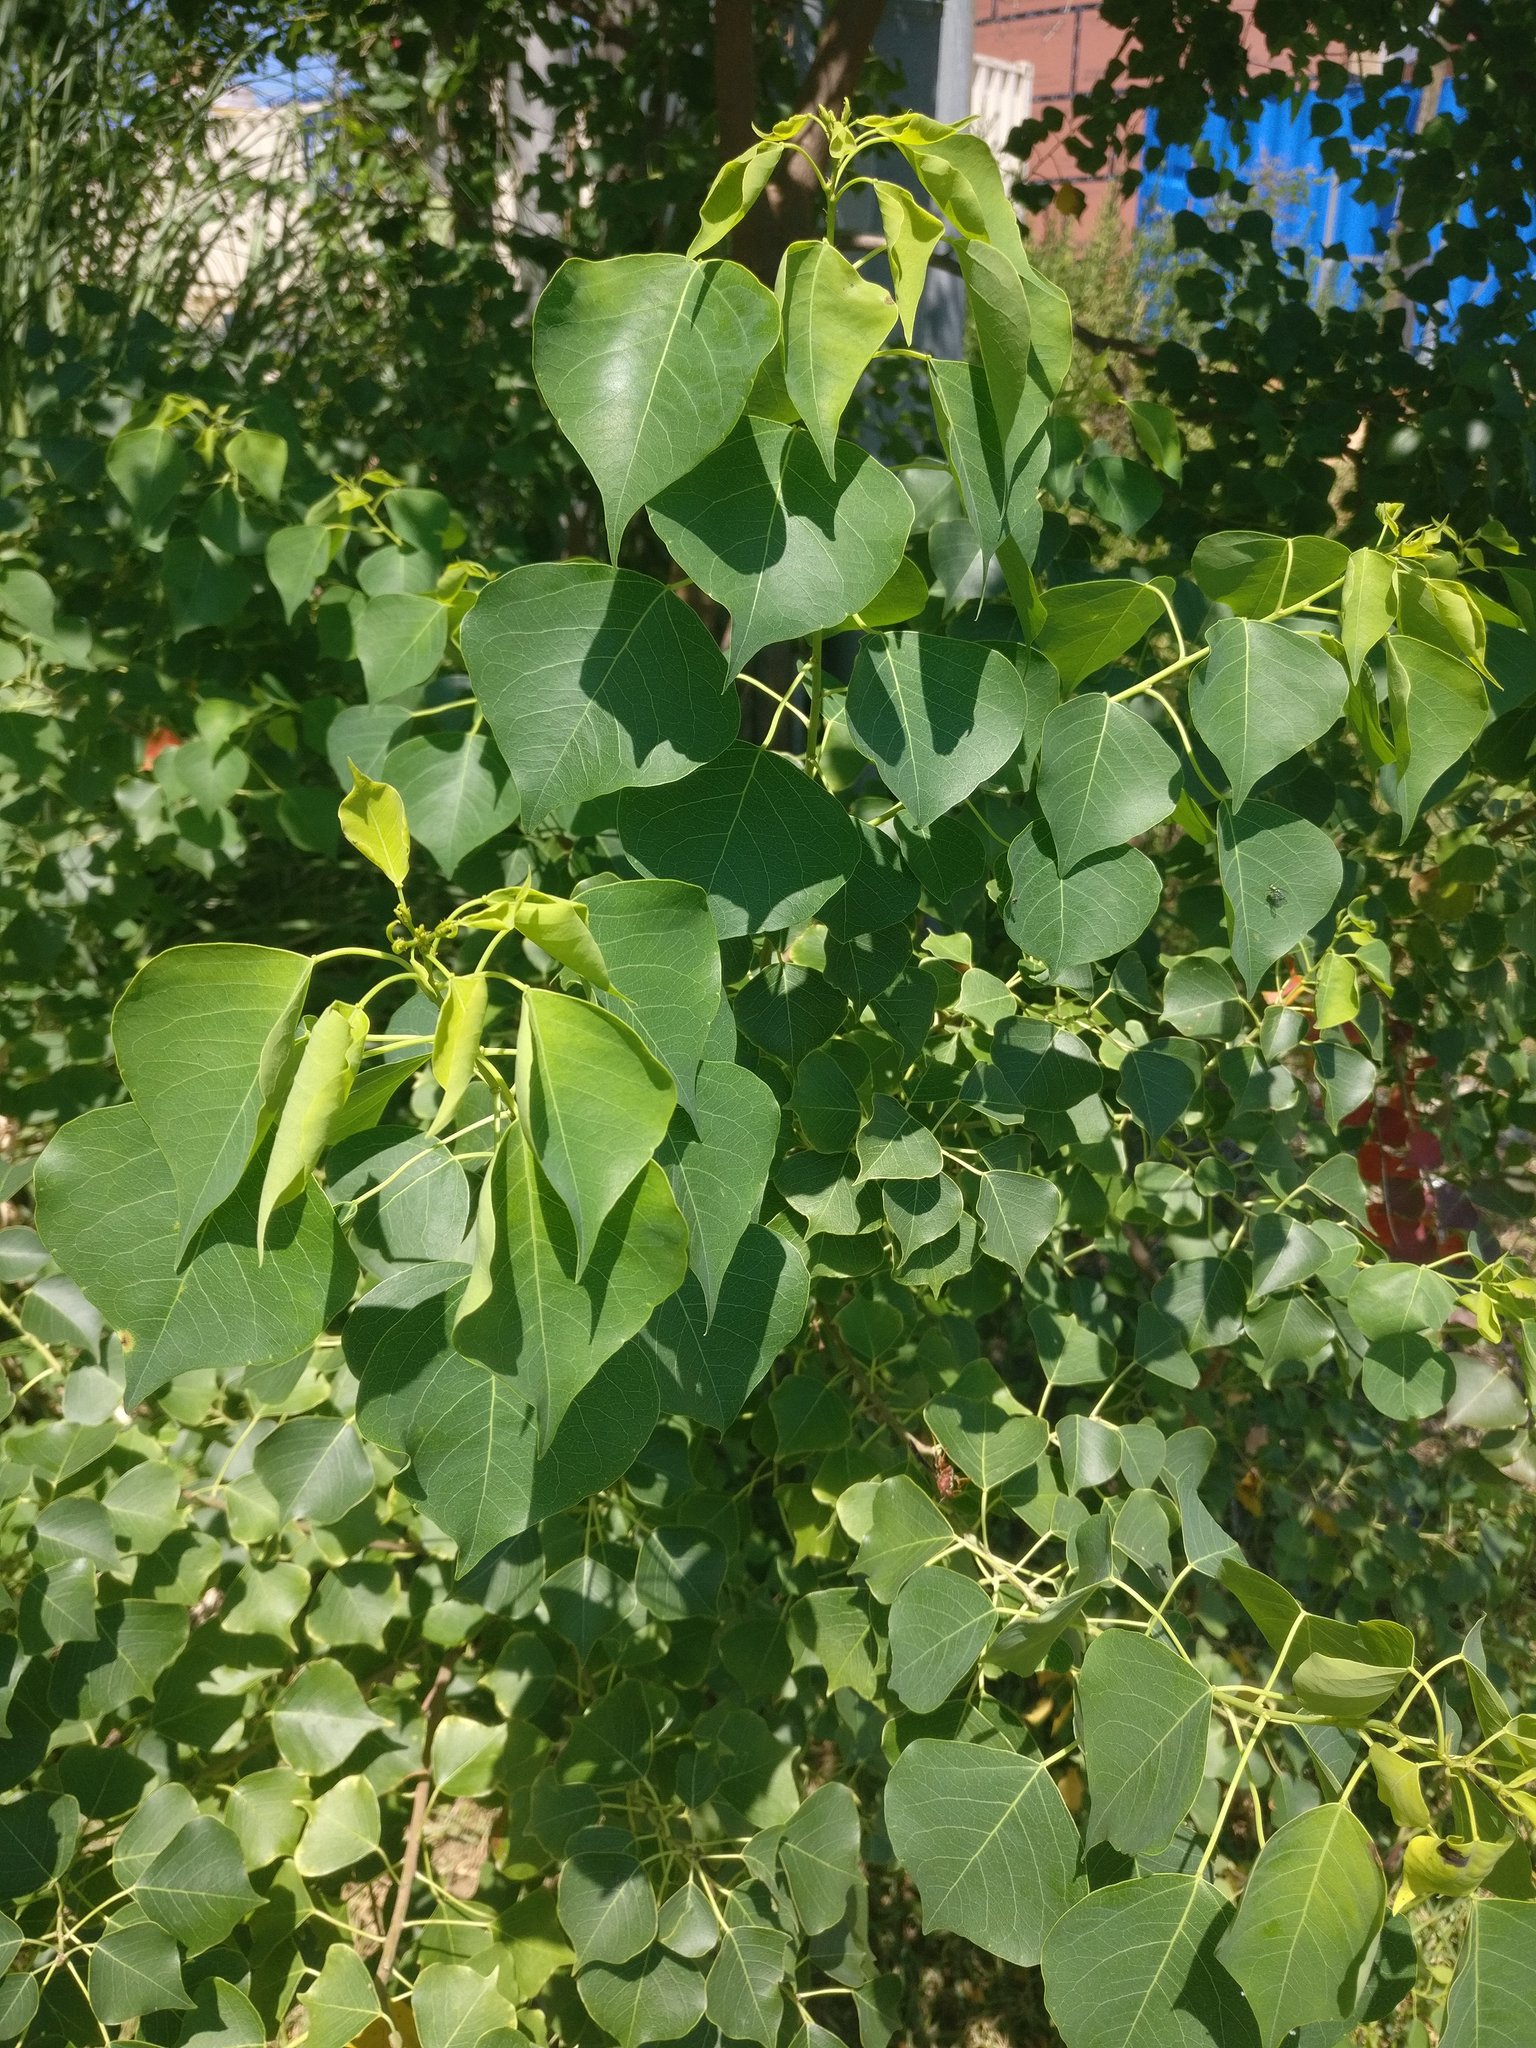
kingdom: Plantae
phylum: Tracheophyta
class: Magnoliopsida
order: Malpighiales
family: Euphorbiaceae
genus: Triadica
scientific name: Triadica sebifera
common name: Chinese tallow
